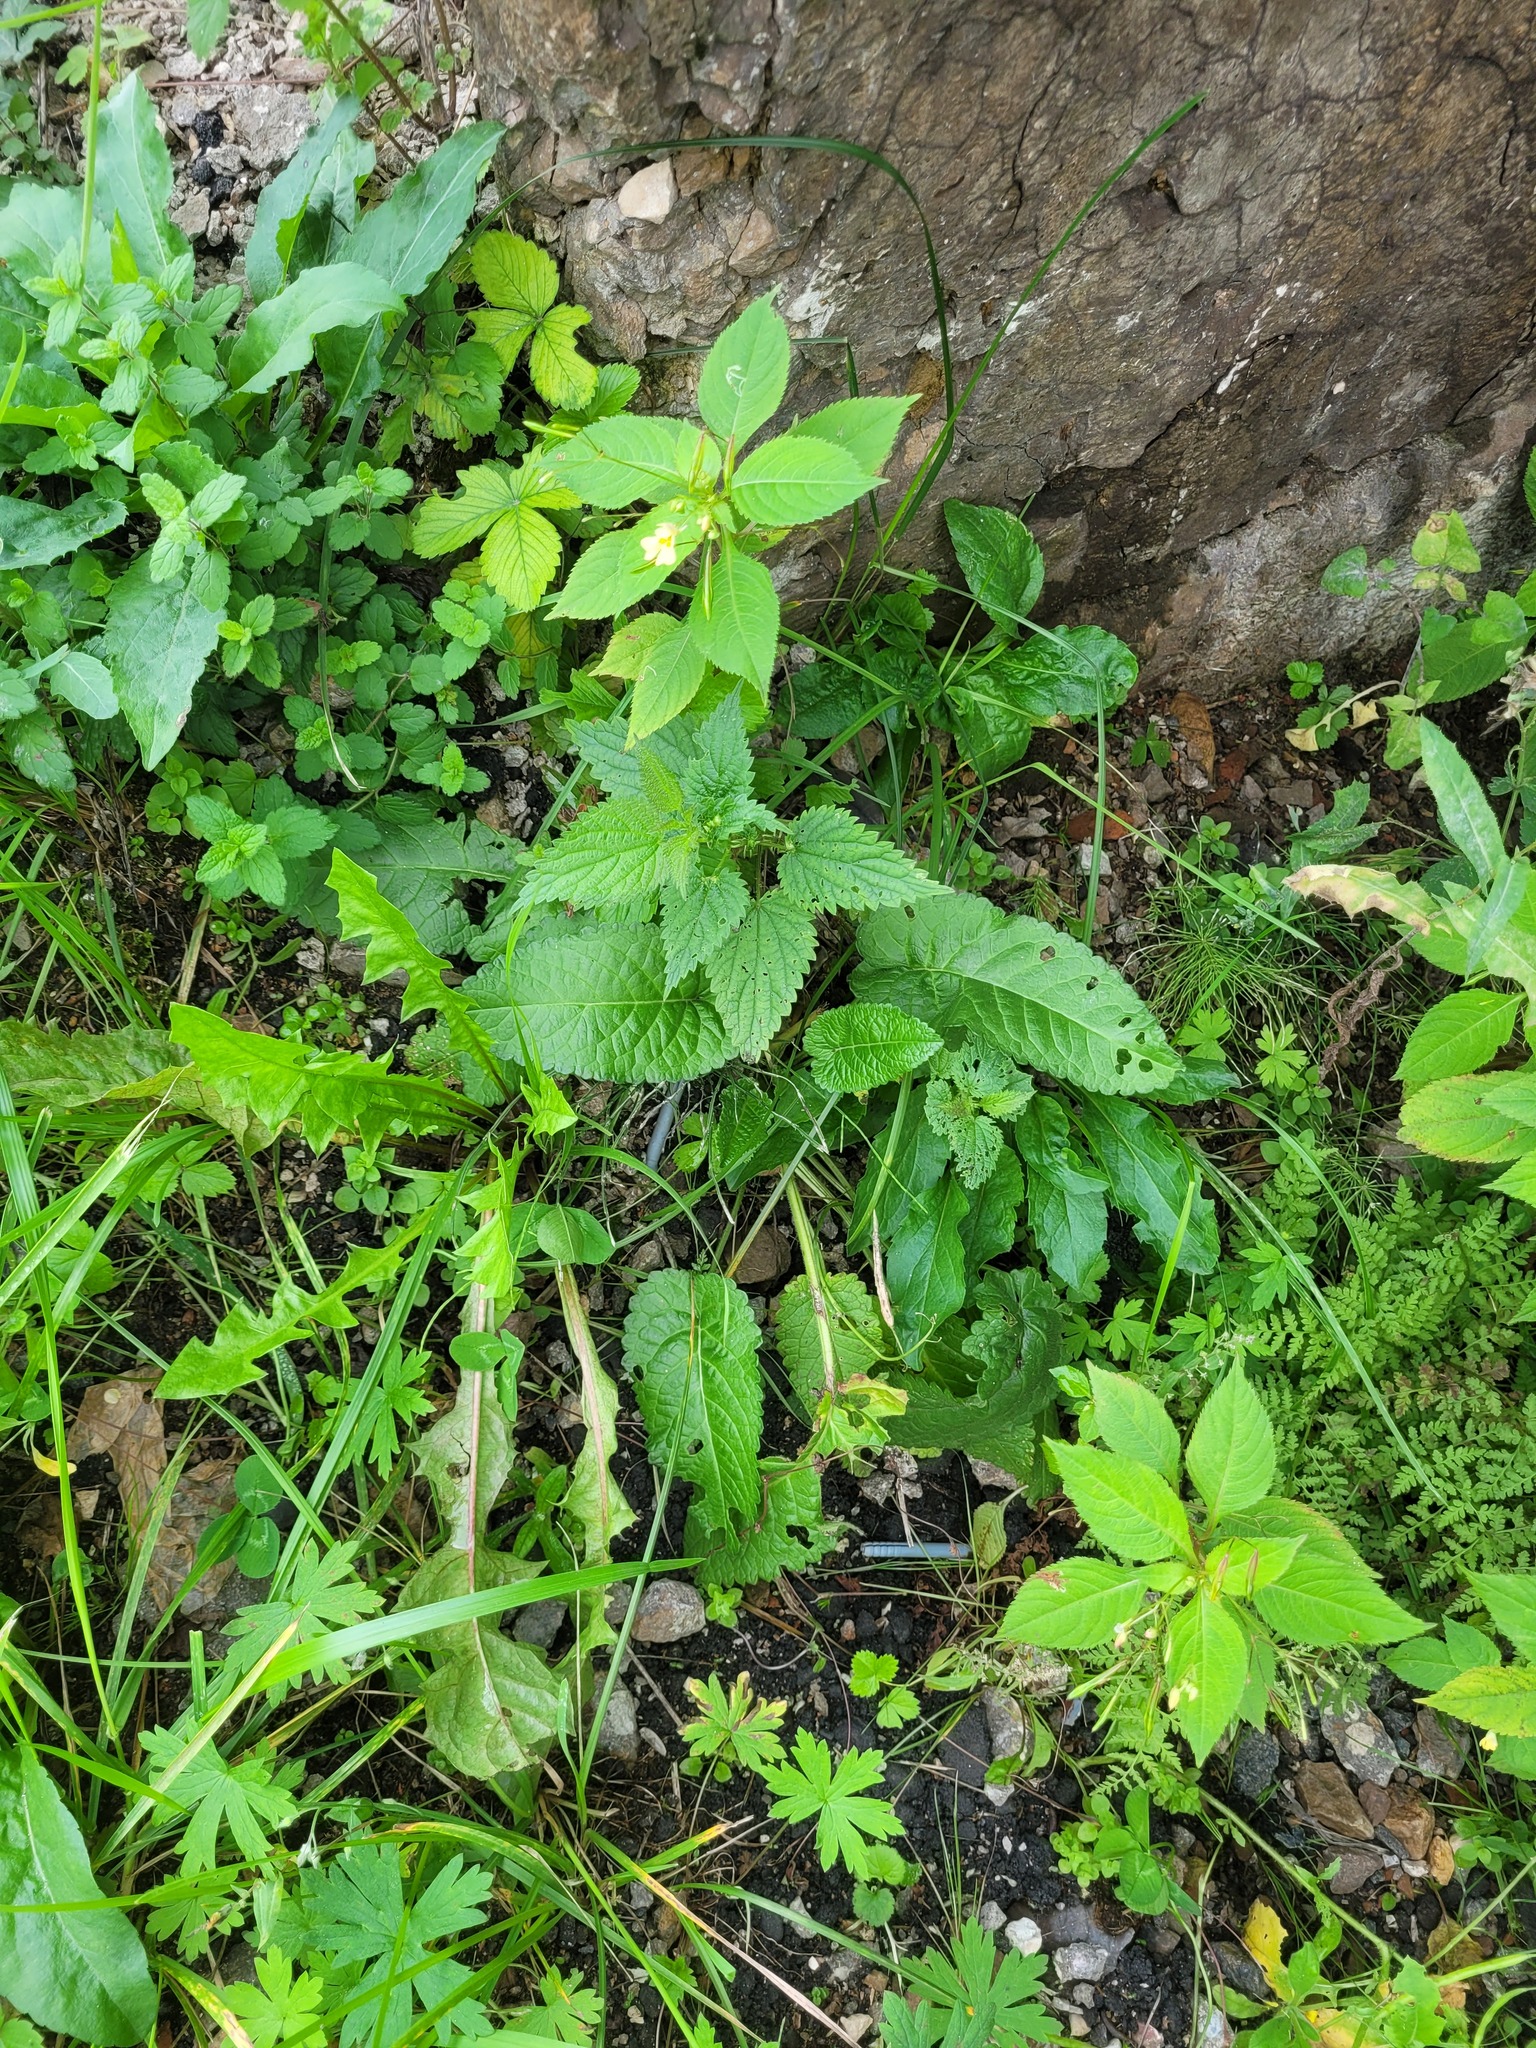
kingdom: Plantae
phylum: Tracheophyta
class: Magnoliopsida
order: Lamiales
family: Lamiaceae
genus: Betonica
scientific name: Betonica officinalis
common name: Bishop's-wort
